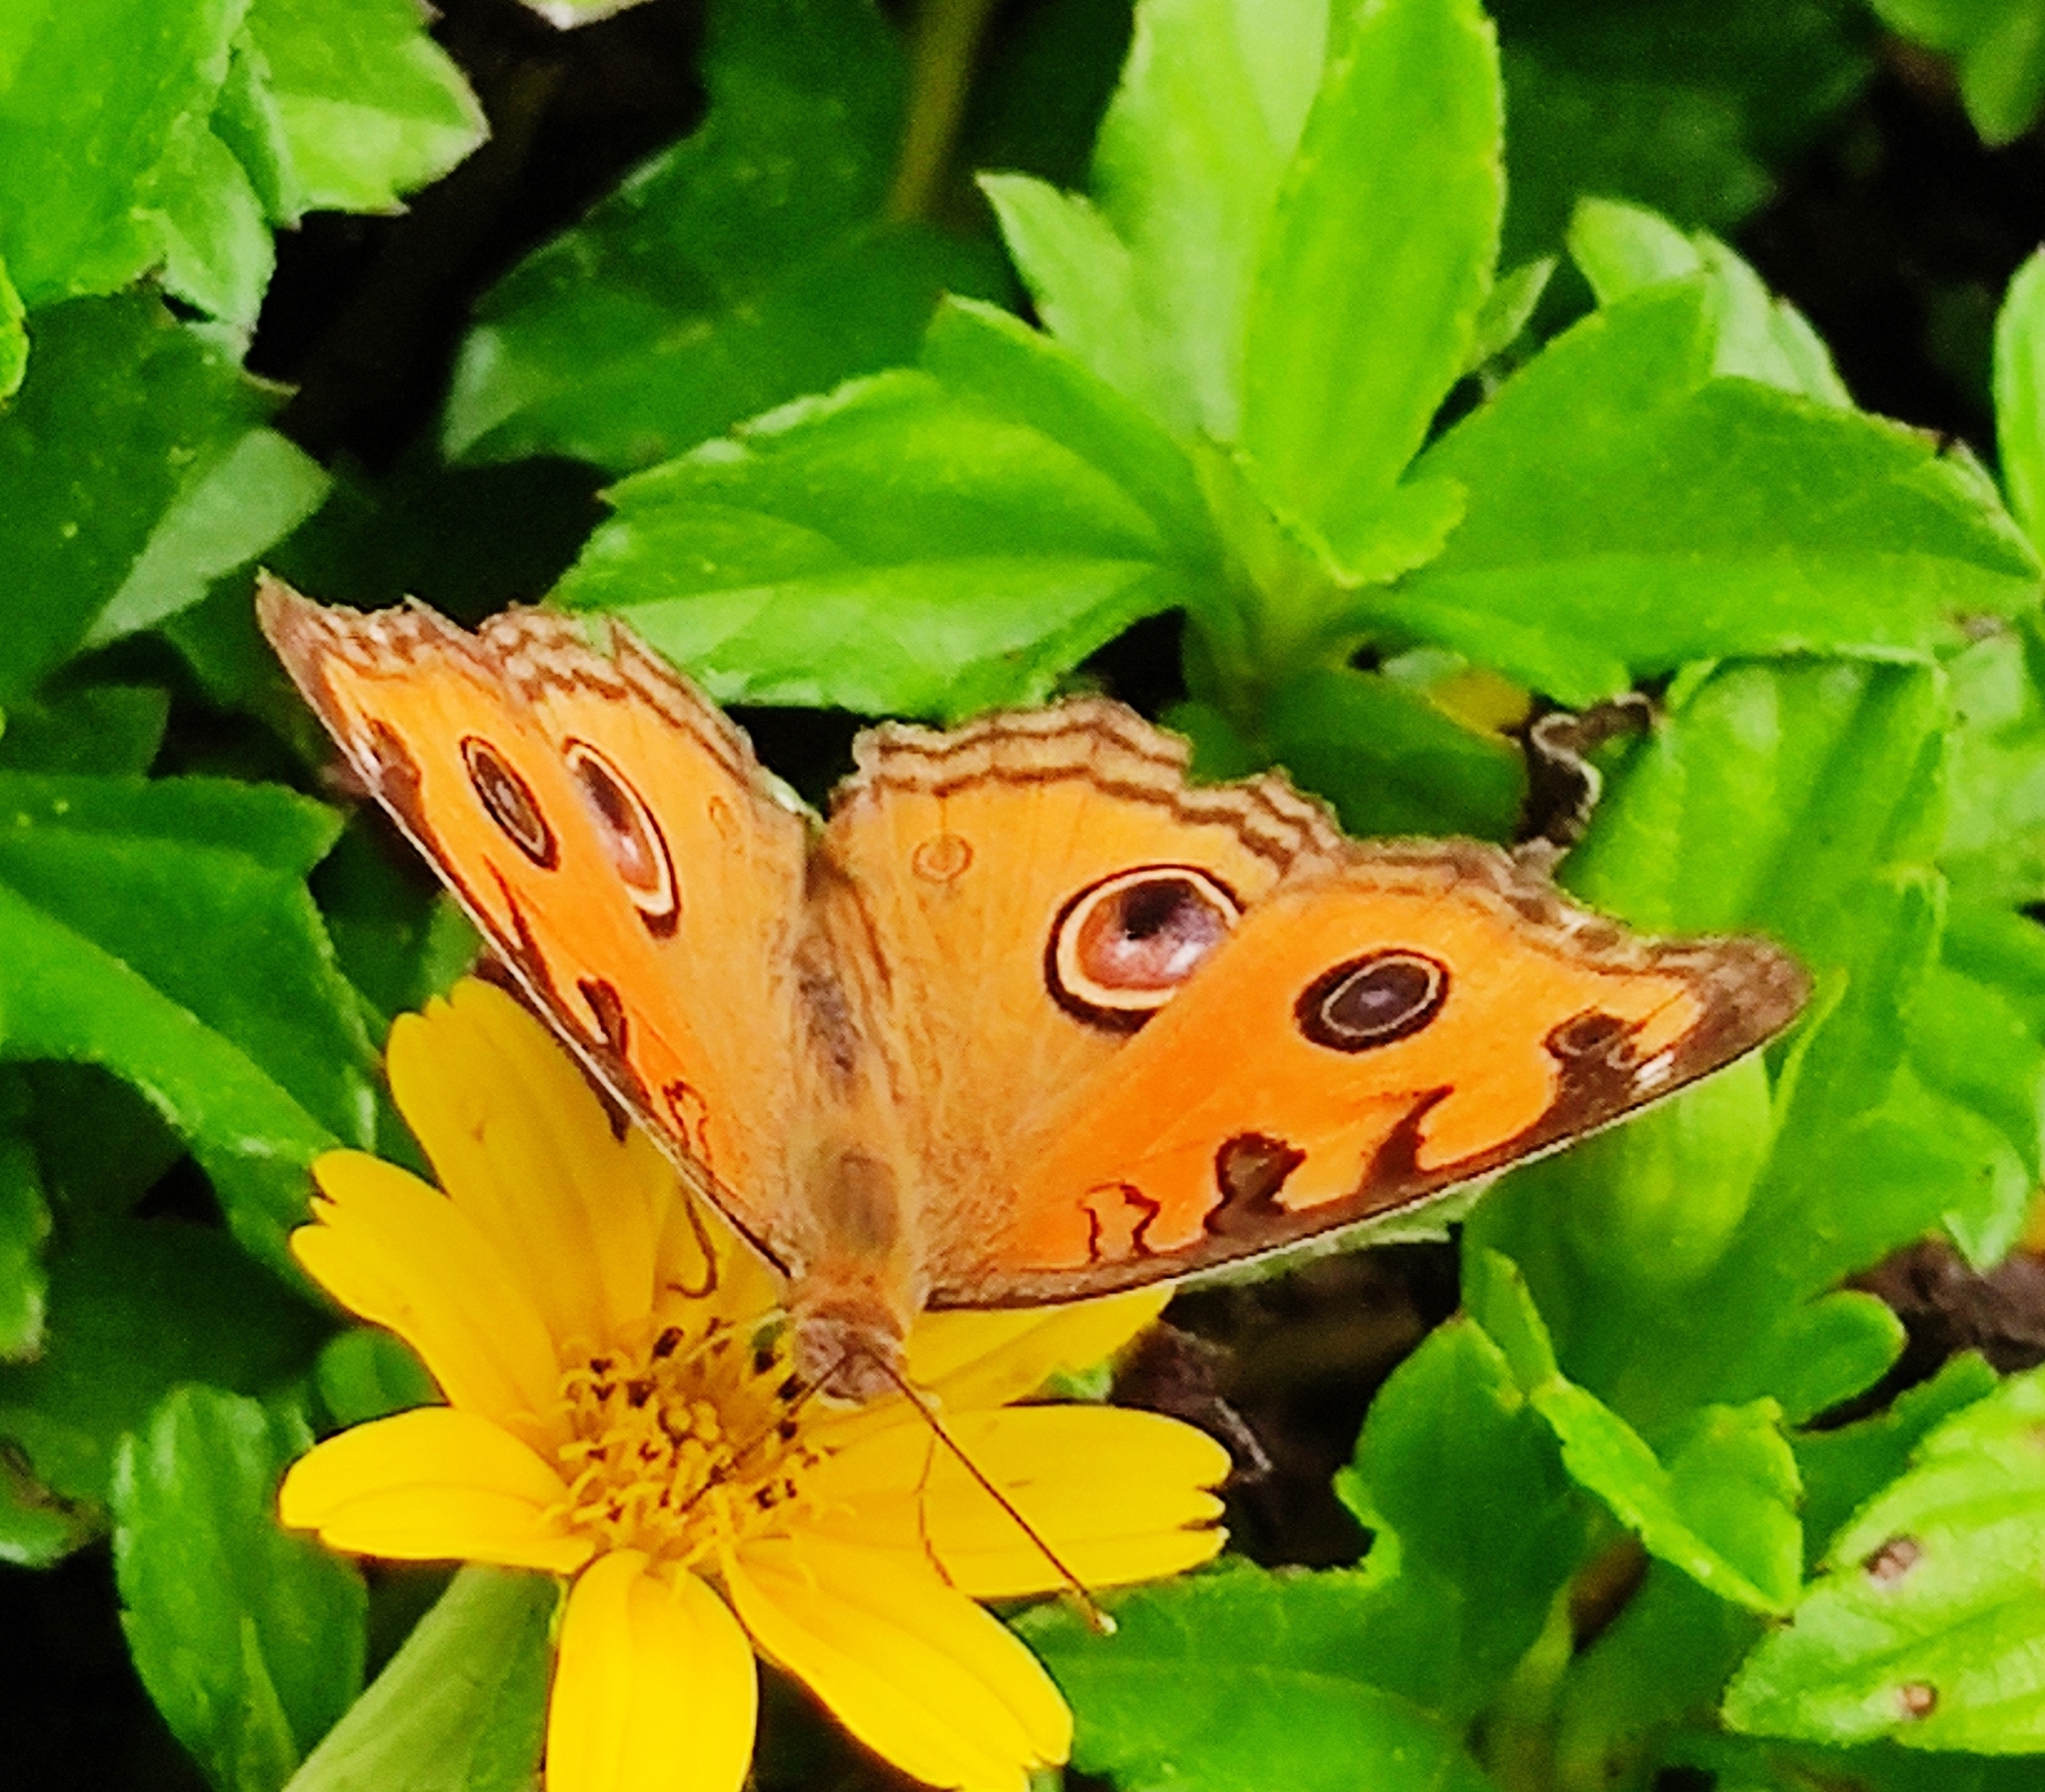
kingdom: Animalia
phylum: Arthropoda
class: Insecta
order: Lepidoptera
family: Nymphalidae
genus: Junonia
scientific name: Junonia almana
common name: Peacock pansy
